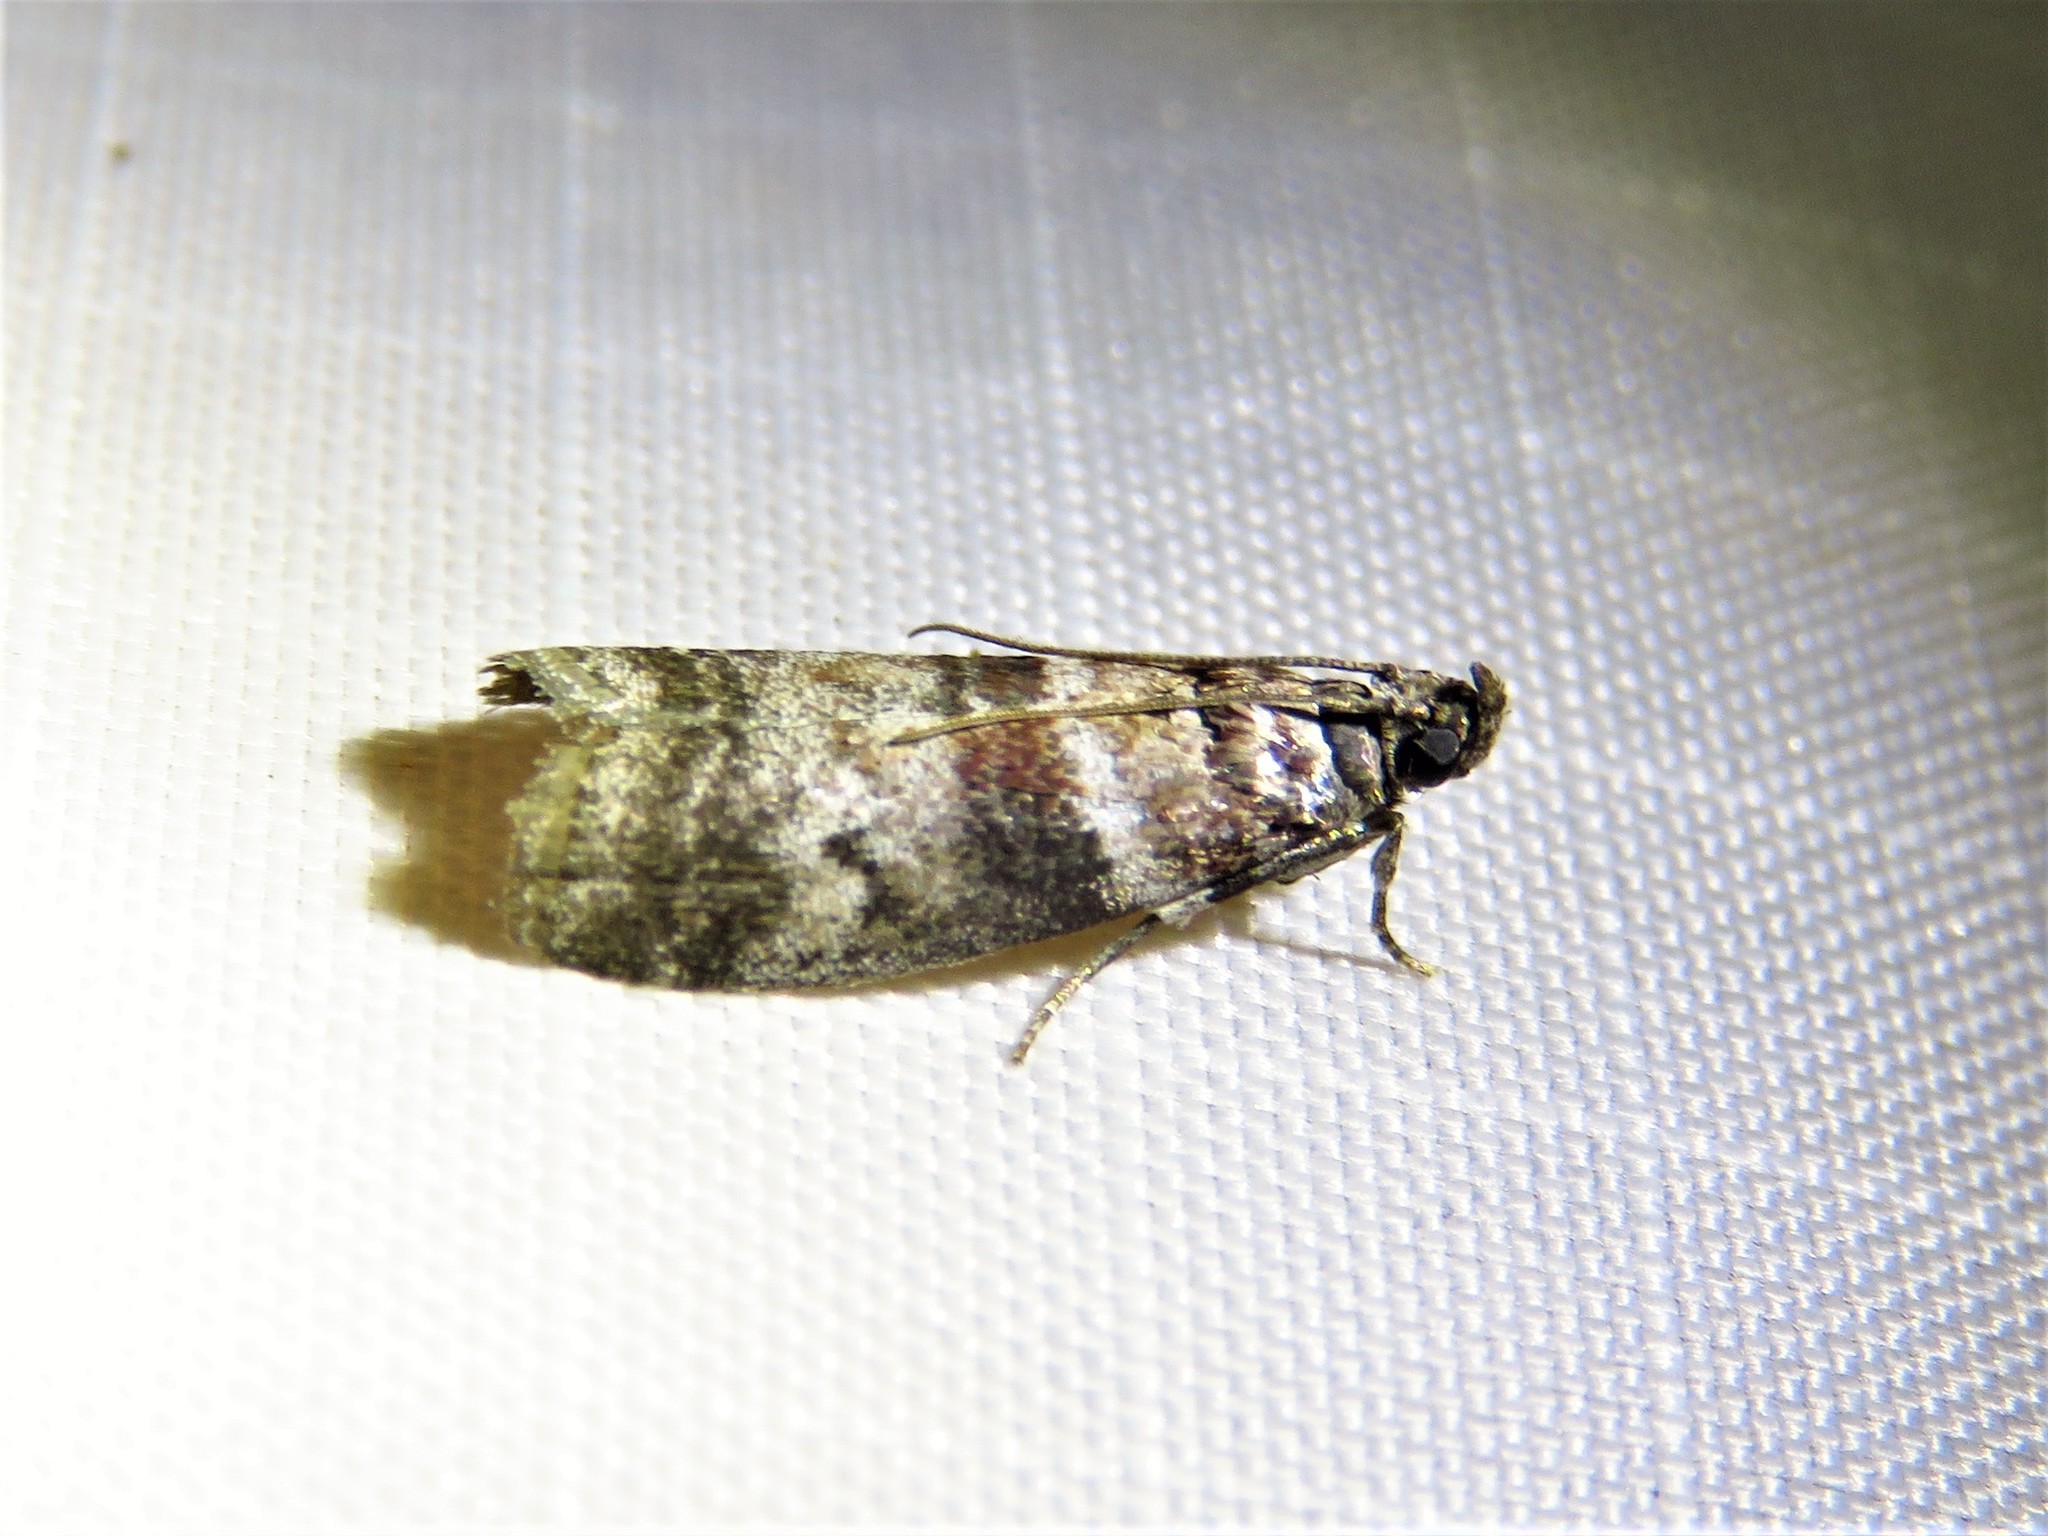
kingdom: Animalia
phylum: Arthropoda
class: Insecta
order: Lepidoptera
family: Pyralidae
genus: Sciota
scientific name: Sciota uvinella
